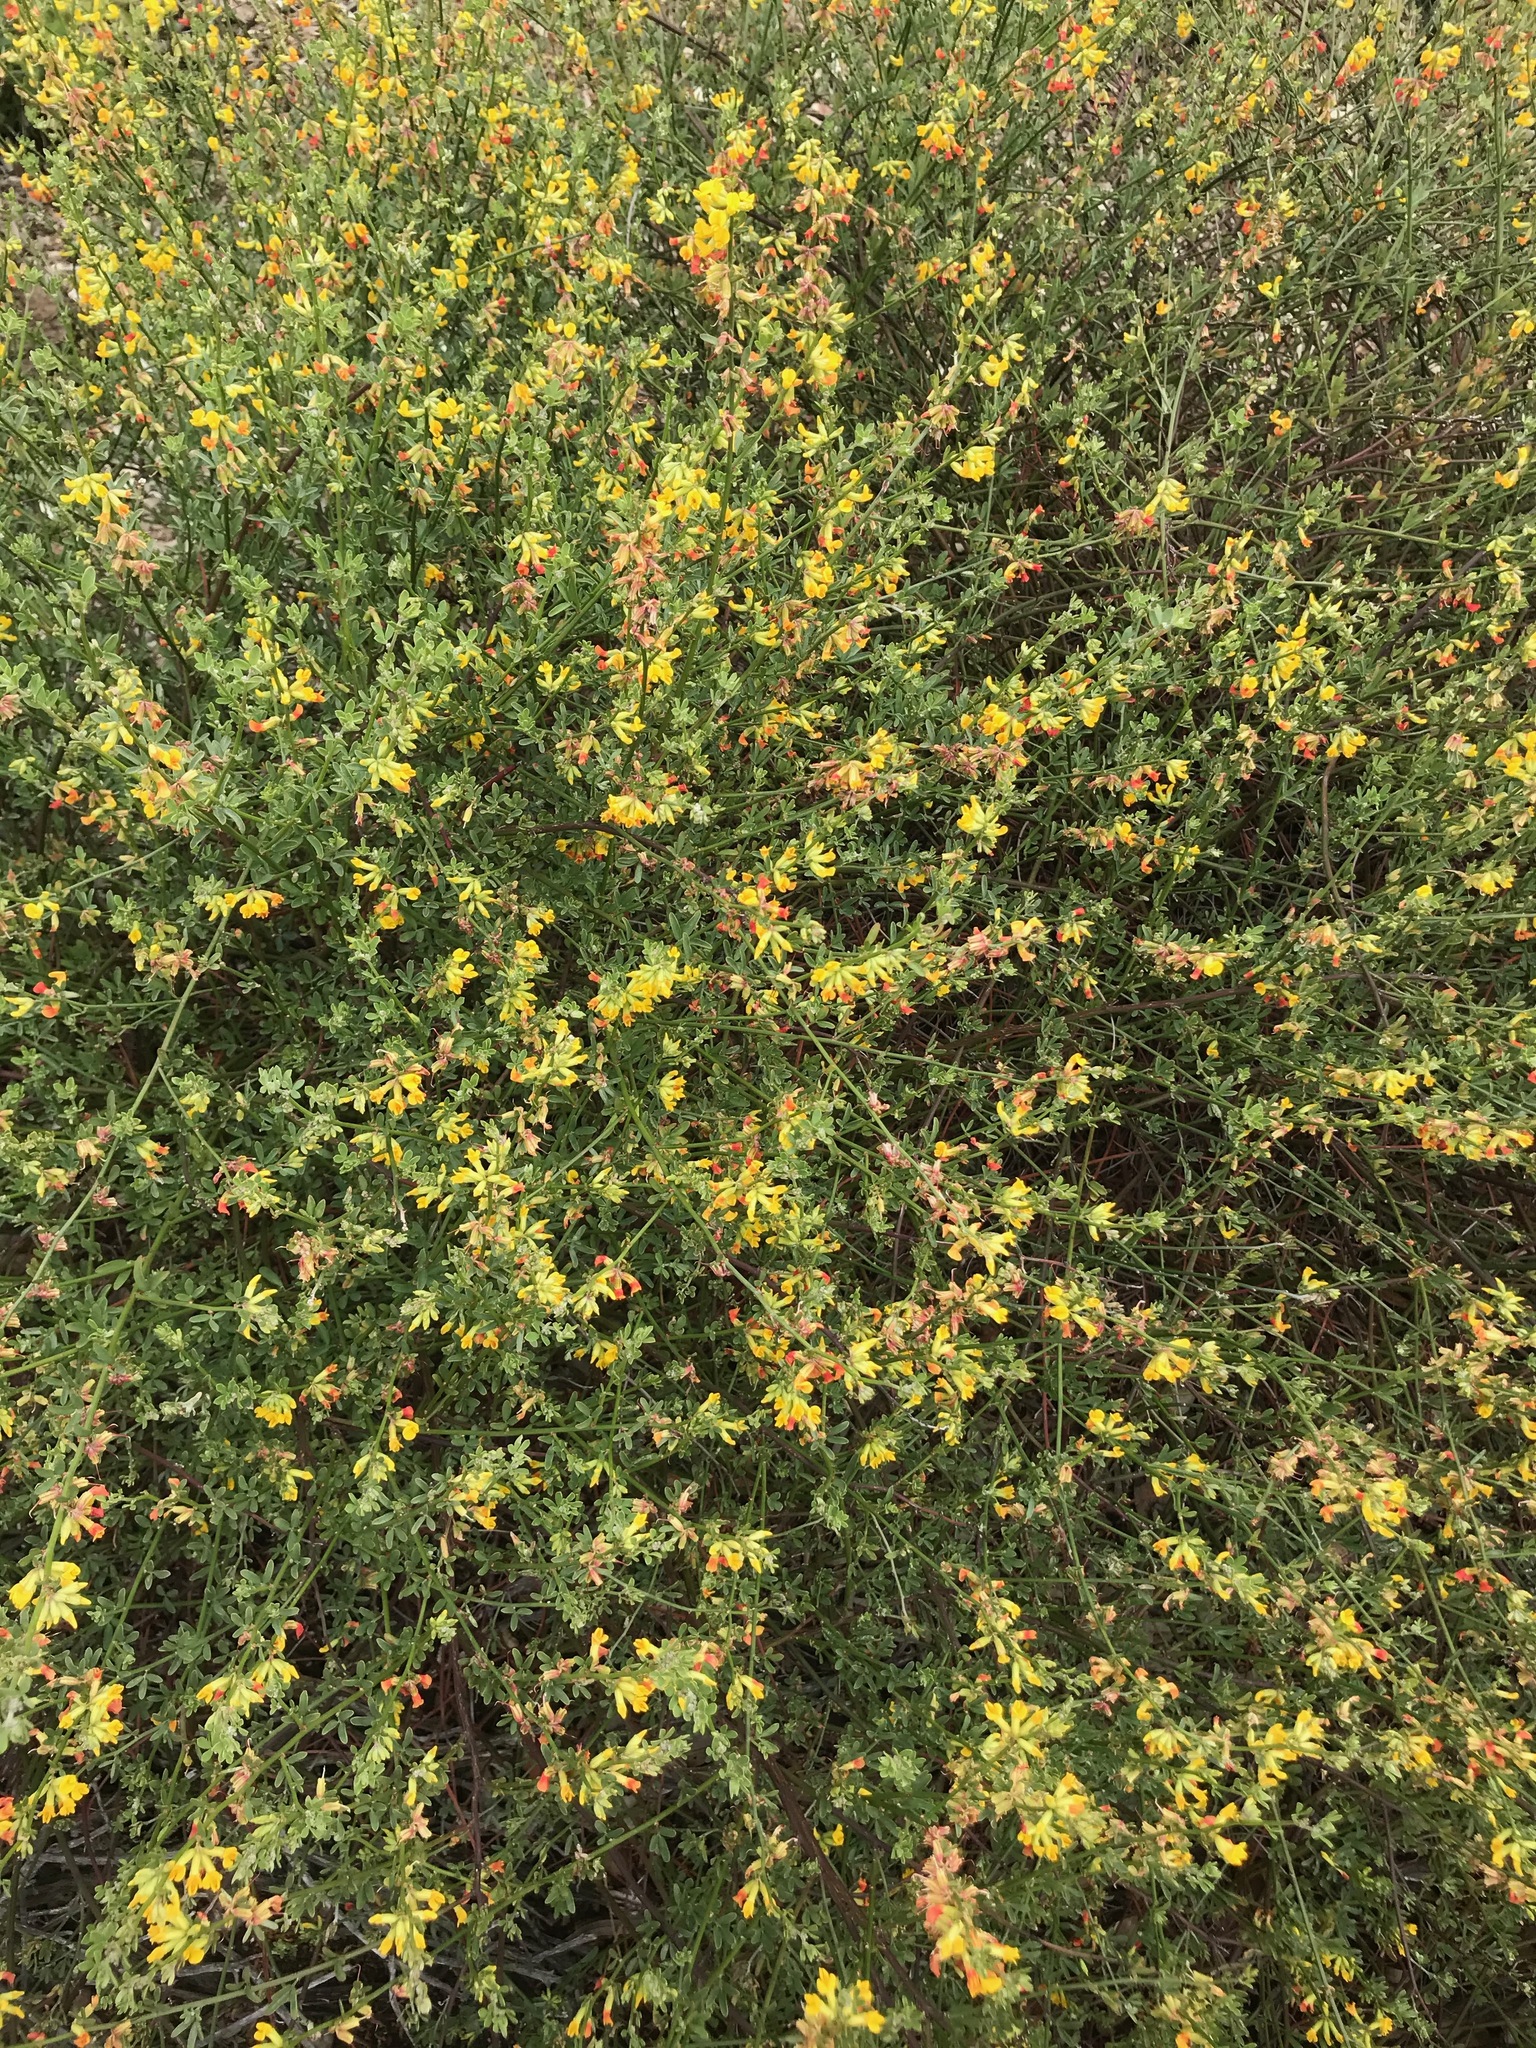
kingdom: Plantae
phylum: Tracheophyta
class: Magnoliopsida
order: Fabales
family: Fabaceae
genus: Acmispon
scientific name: Acmispon glaber
